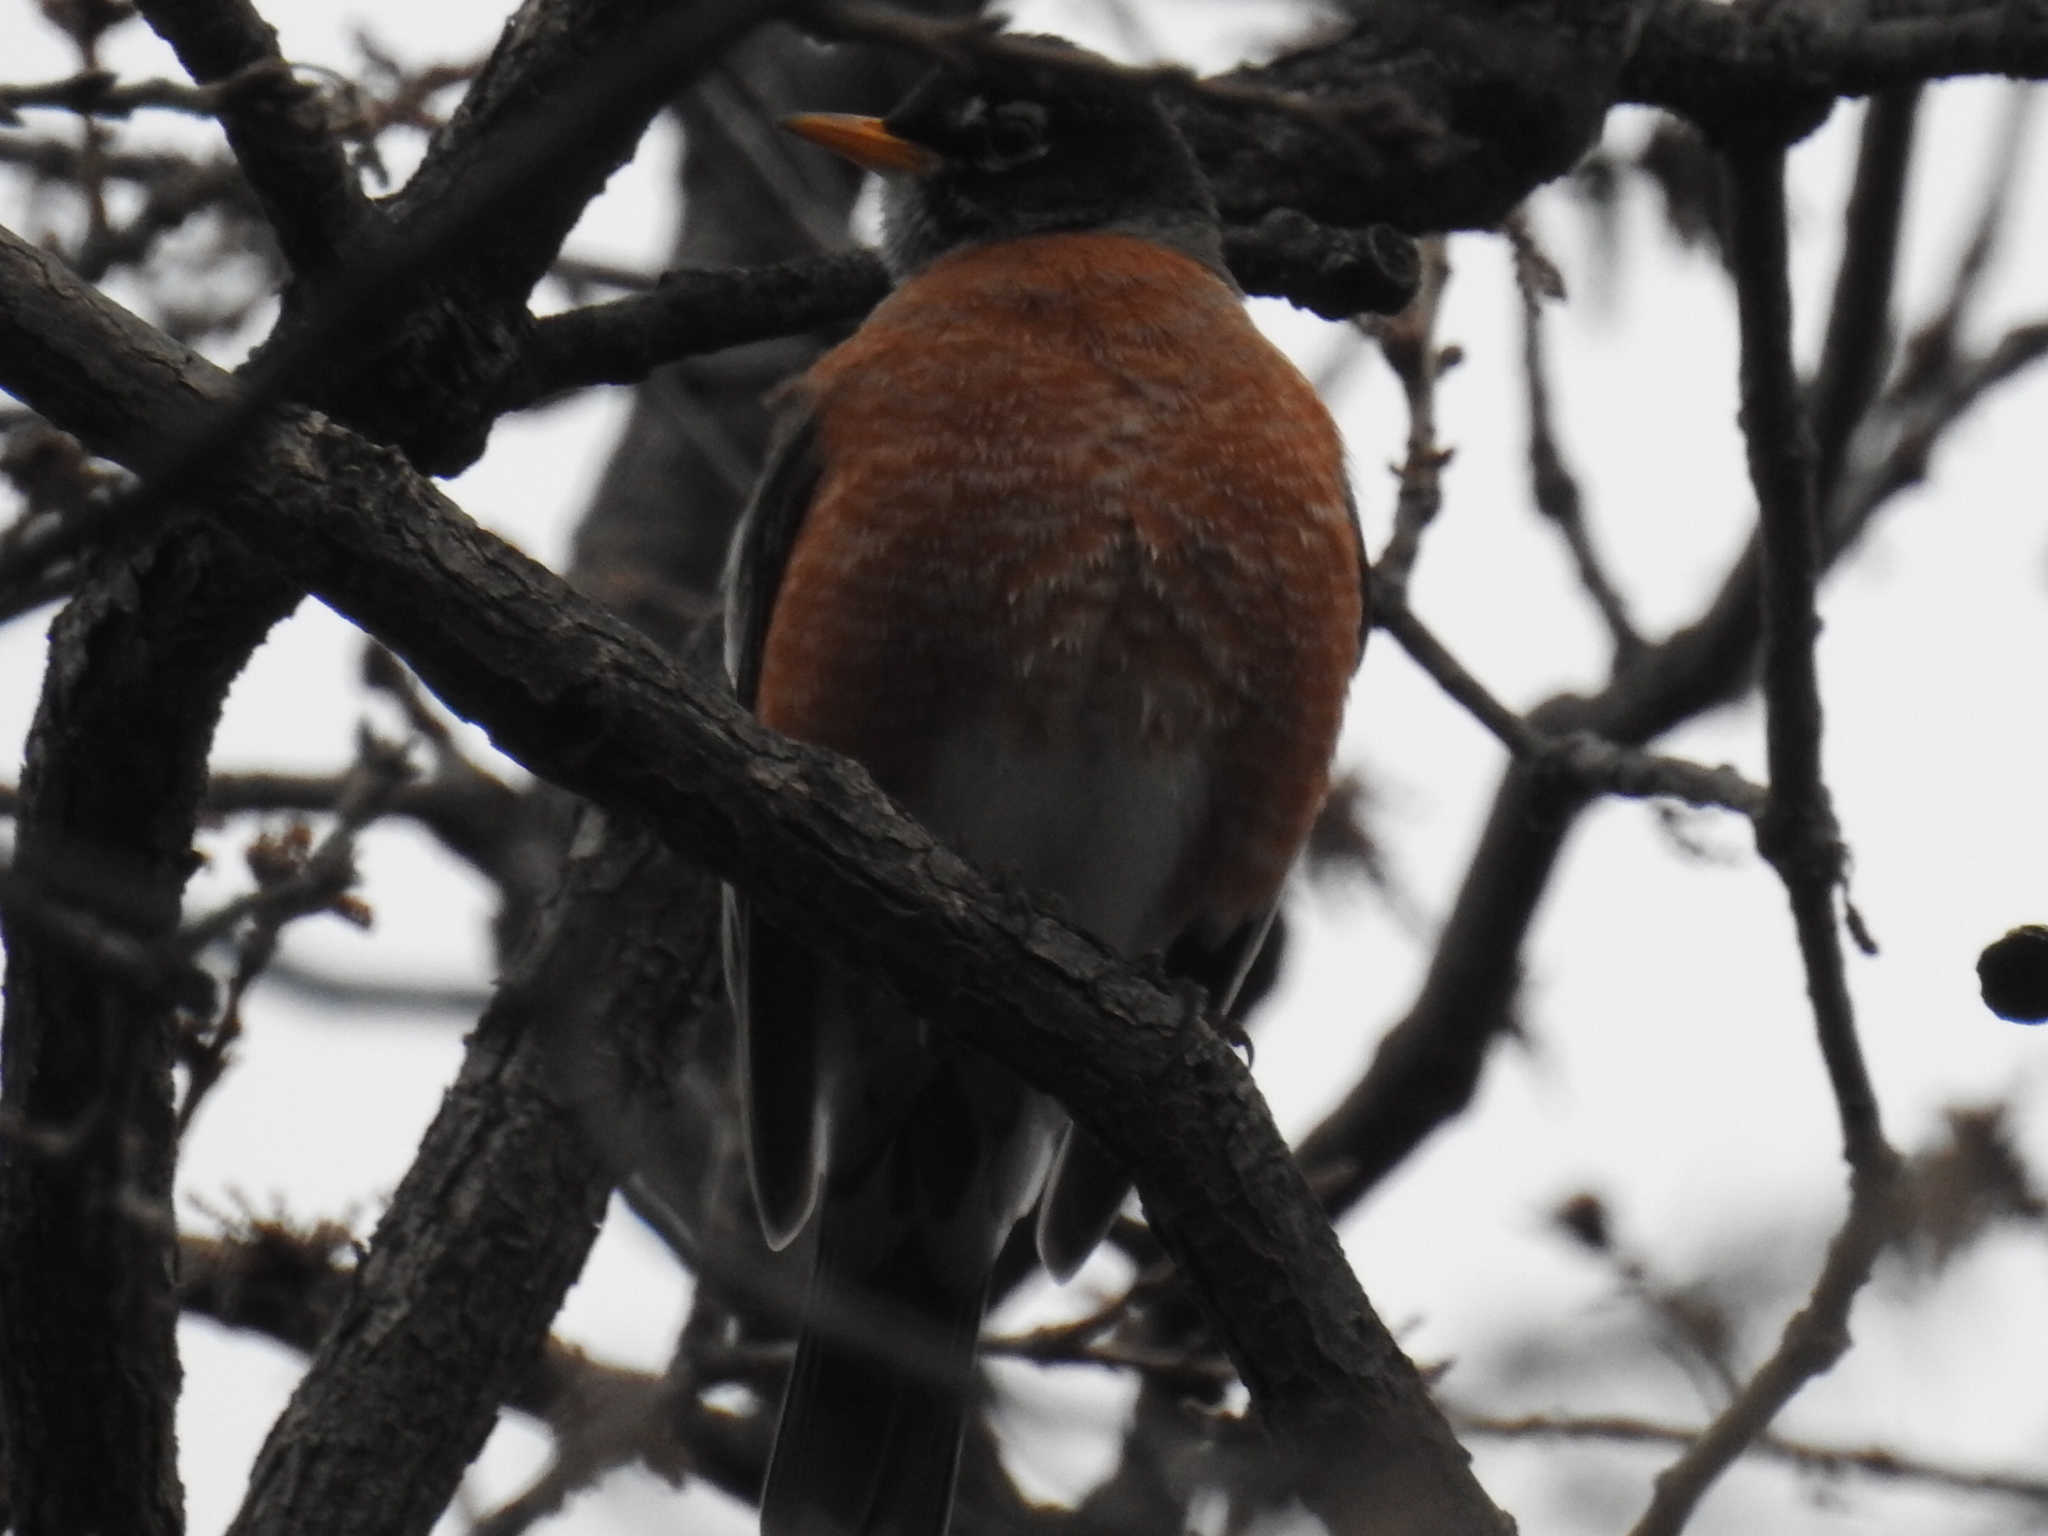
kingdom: Animalia
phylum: Chordata
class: Aves
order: Passeriformes
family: Turdidae
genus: Turdus
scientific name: Turdus migratorius
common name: American robin
